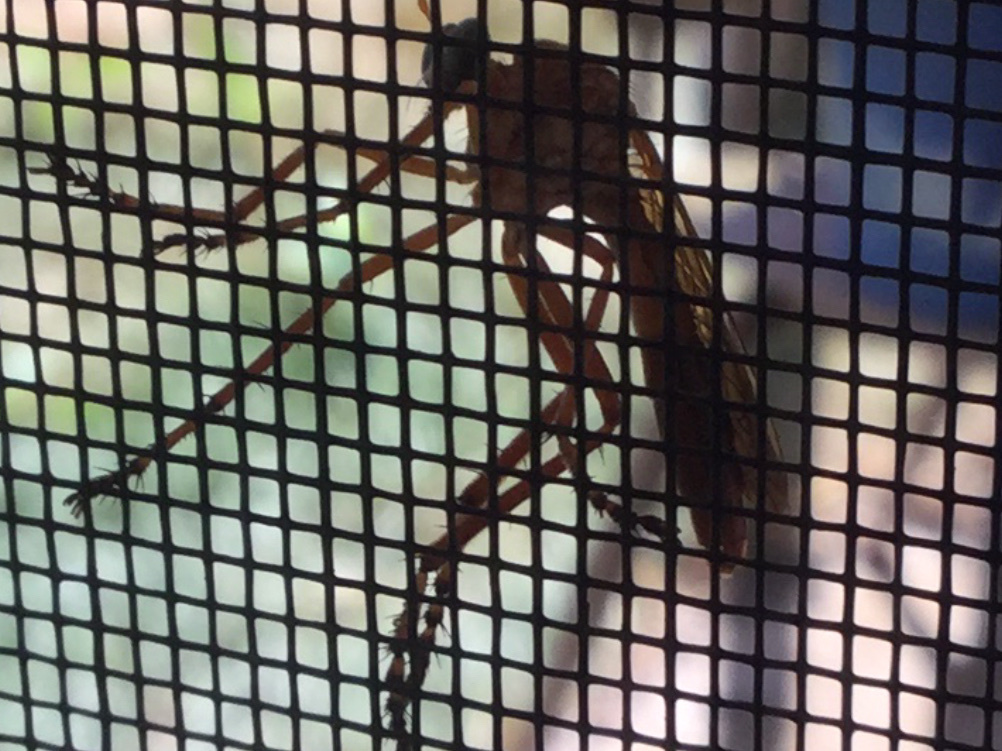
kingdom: Animalia
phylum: Arthropoda
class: Insecta
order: Diptera
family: Asilidae
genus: Diogmites
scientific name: Diogmites
